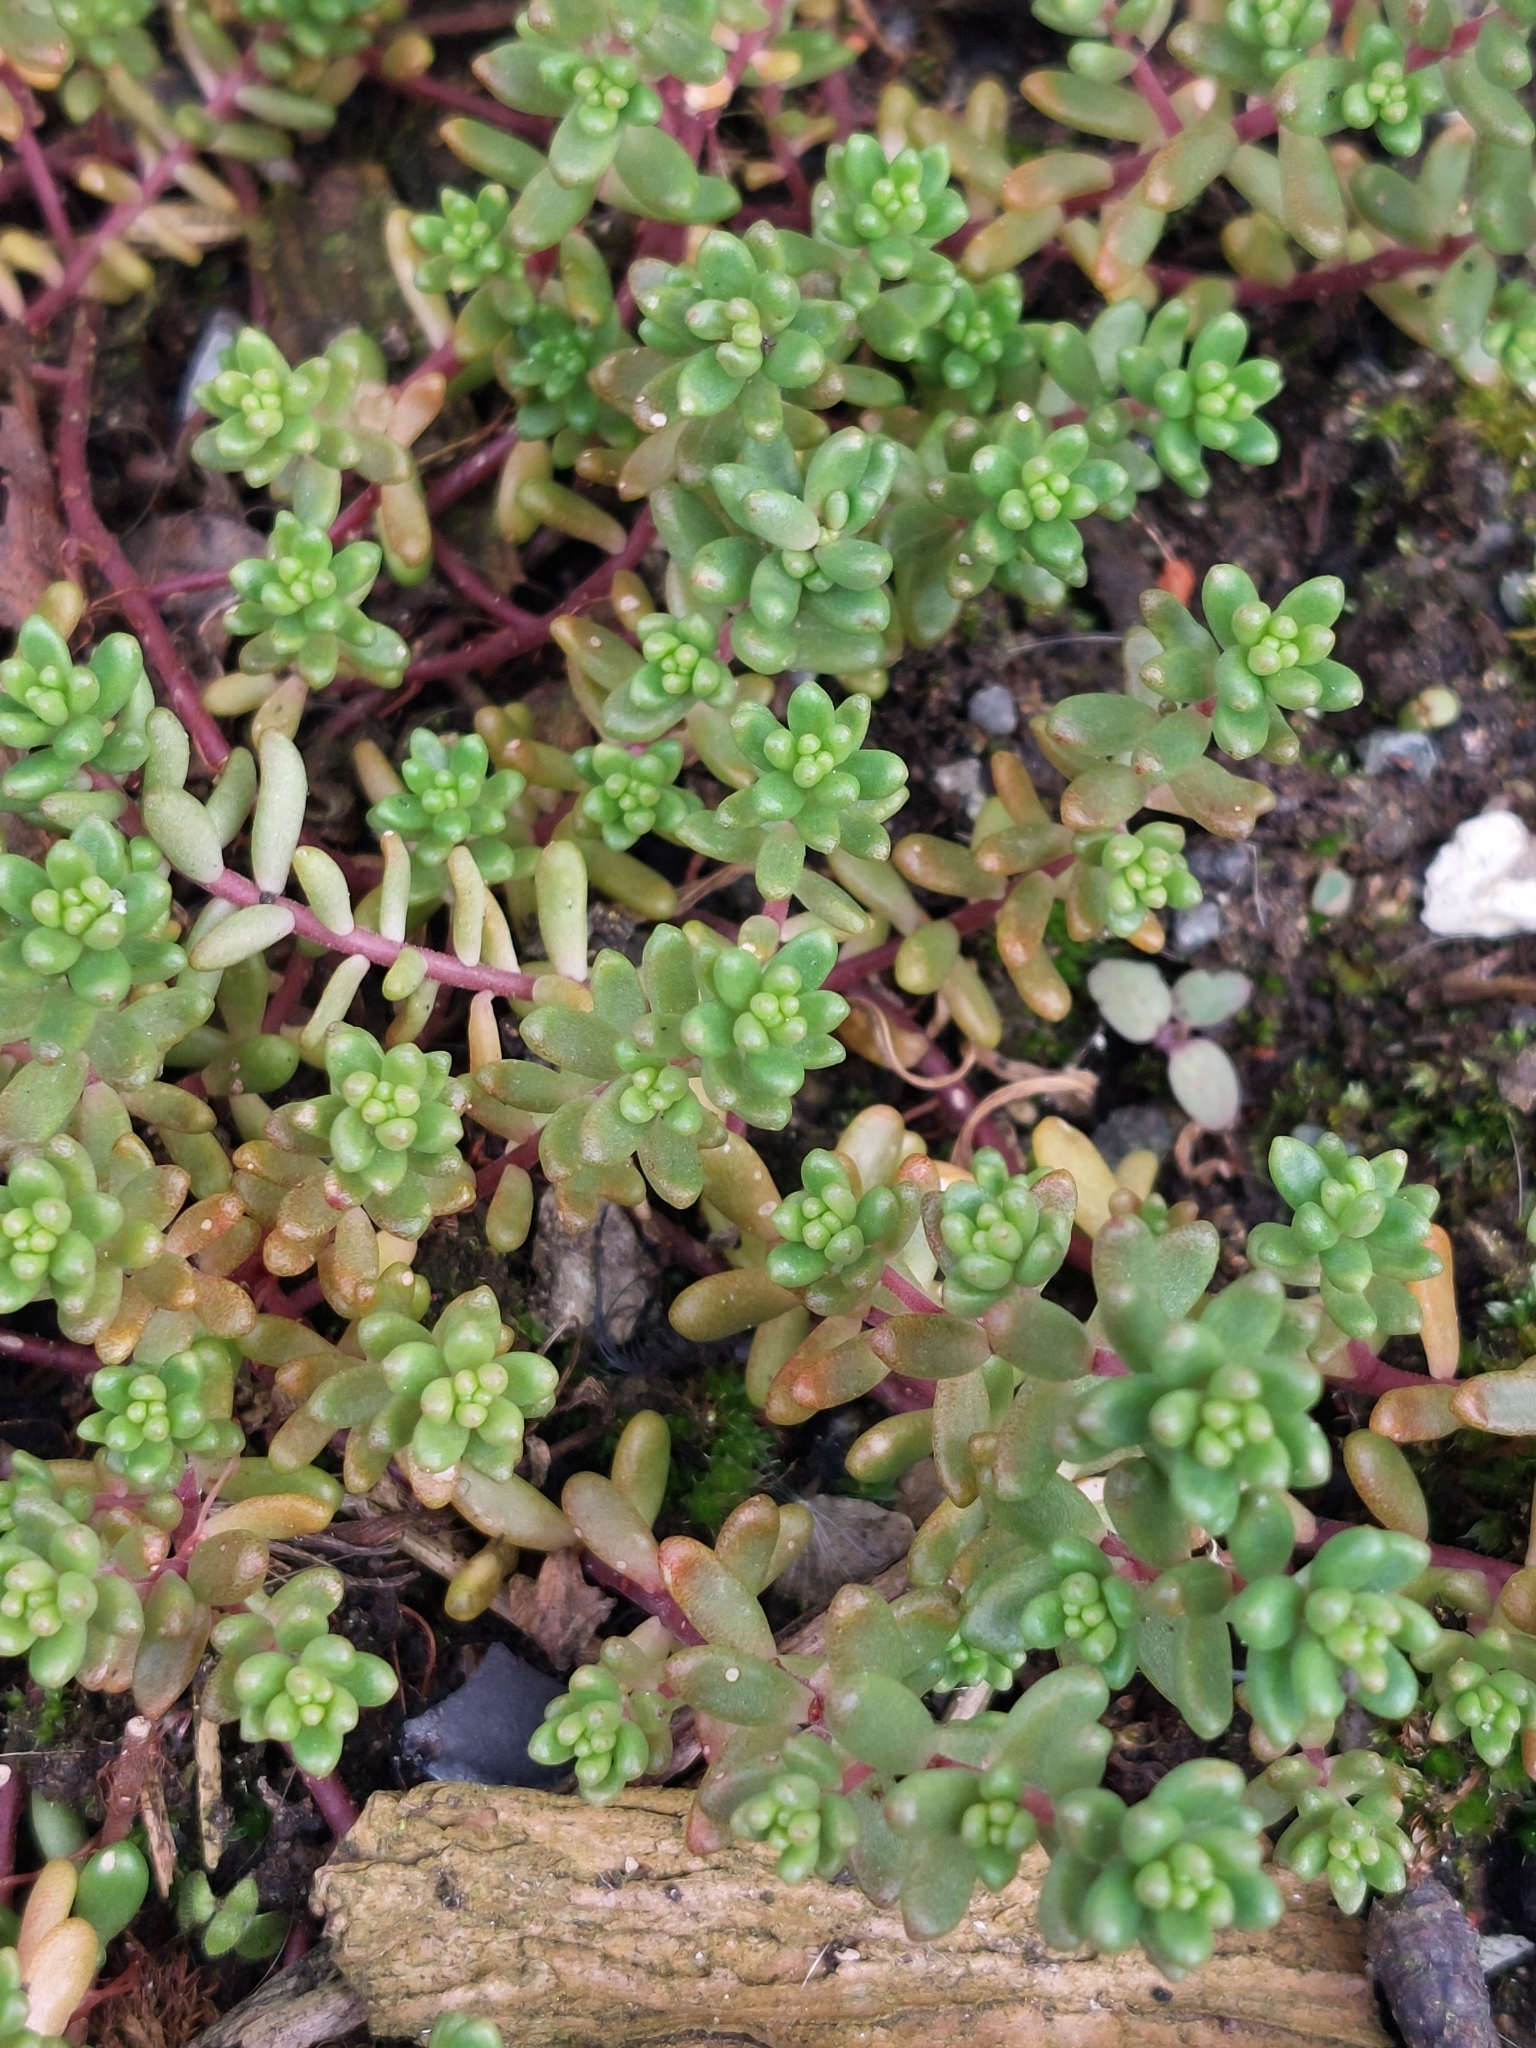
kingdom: Plantae
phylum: Tracheophyta
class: Magnoliopsida
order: Saxifragales
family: Crassulaceae
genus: Sedum
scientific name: Sedum album
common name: White stonecrop
